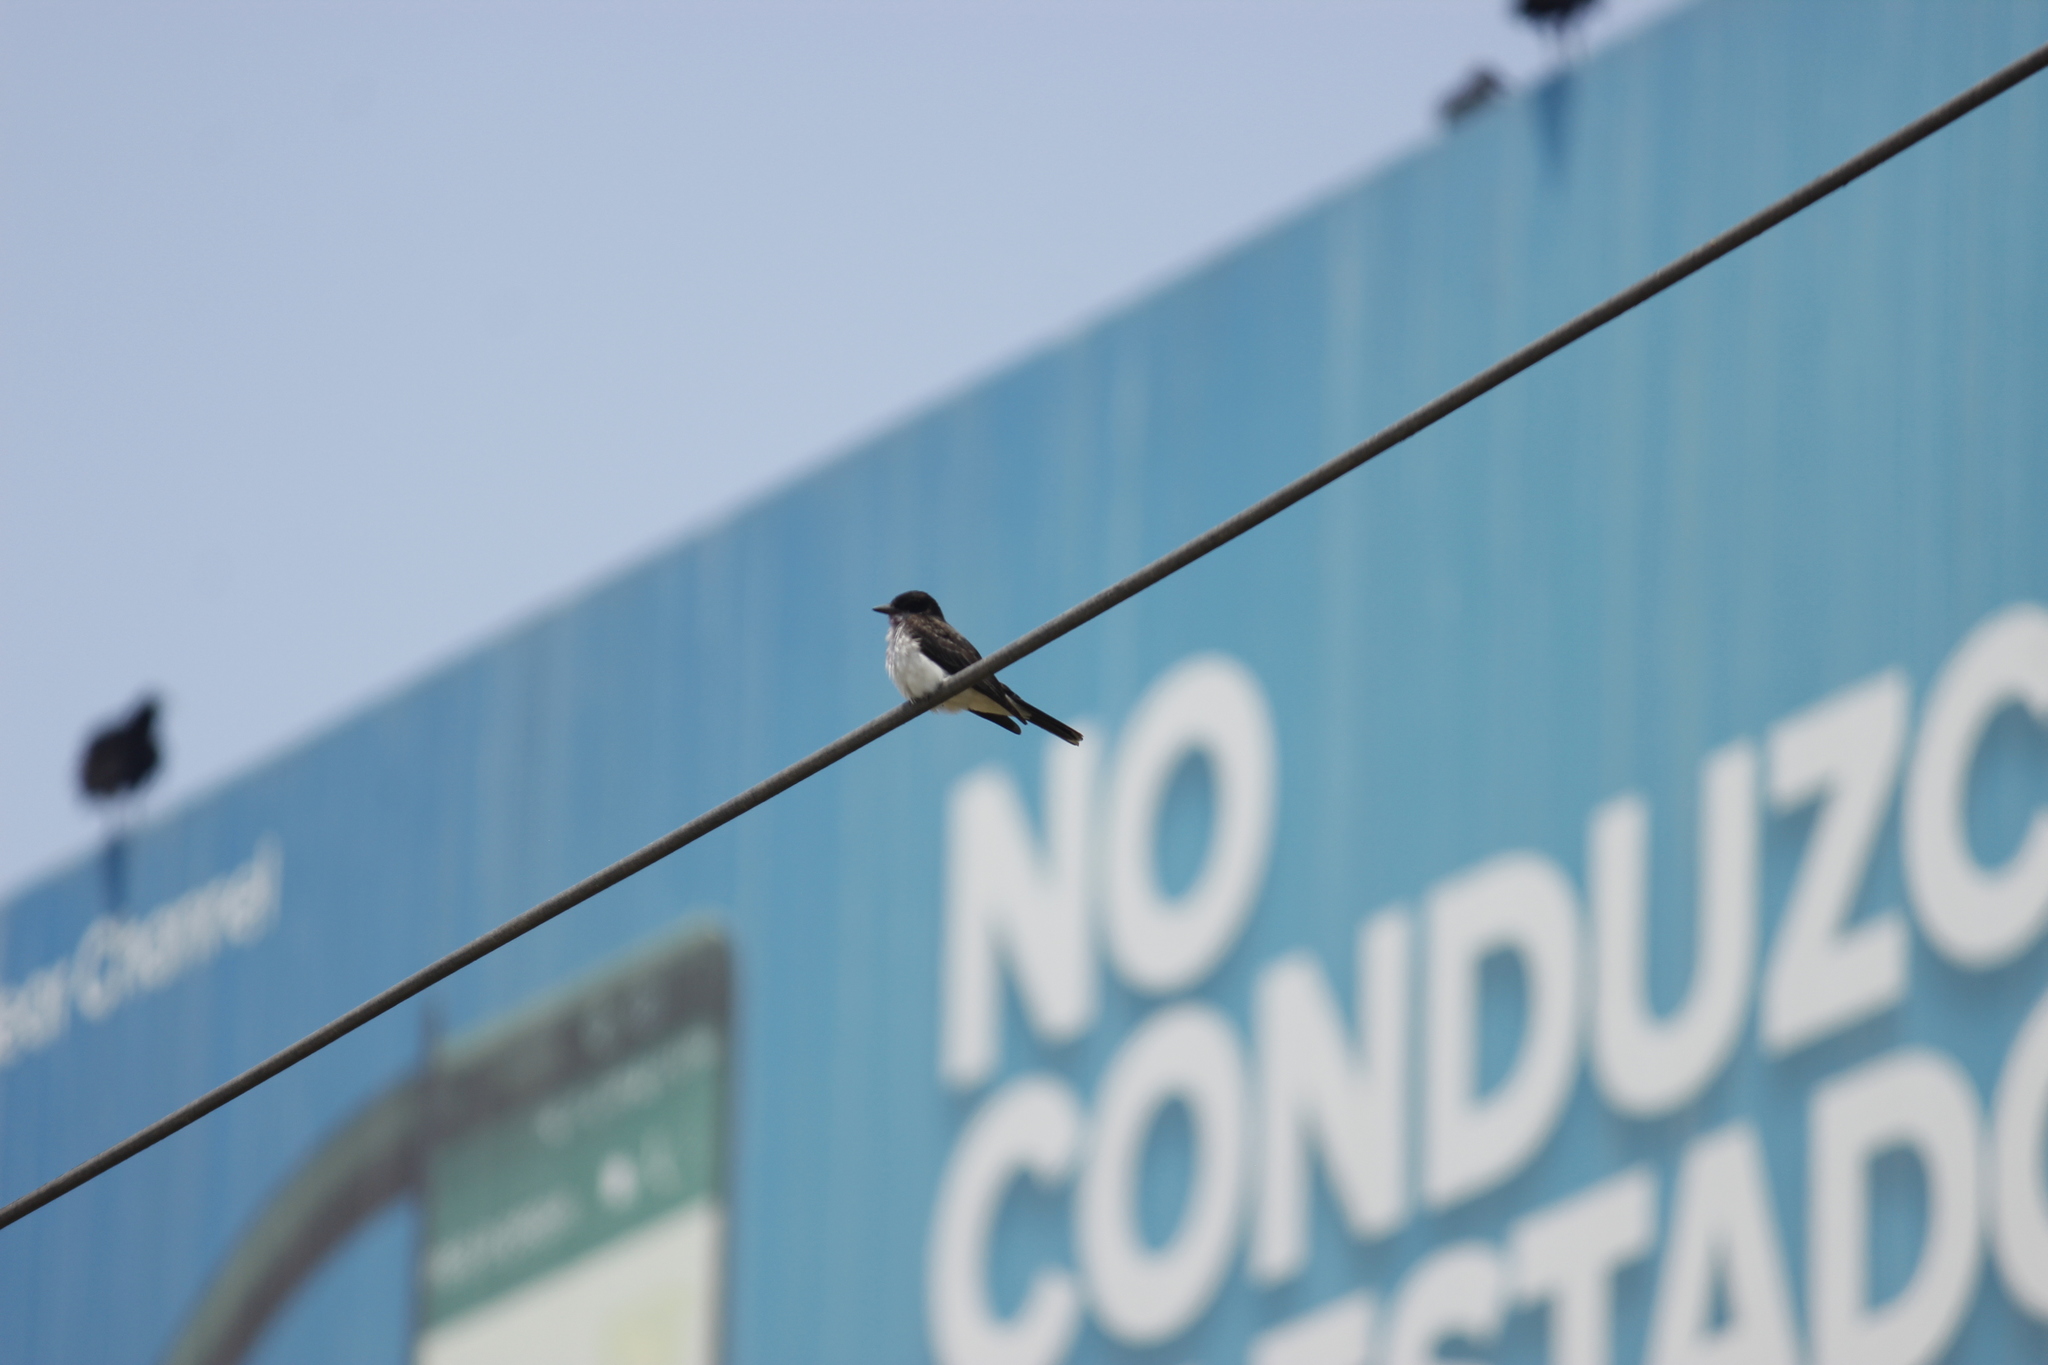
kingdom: Animalia
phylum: Chordata
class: Aves
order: Passeriformes
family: Tyrannidae
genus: Tyrannus
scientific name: Tyrannus tyrannus
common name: Eastern kingbird
